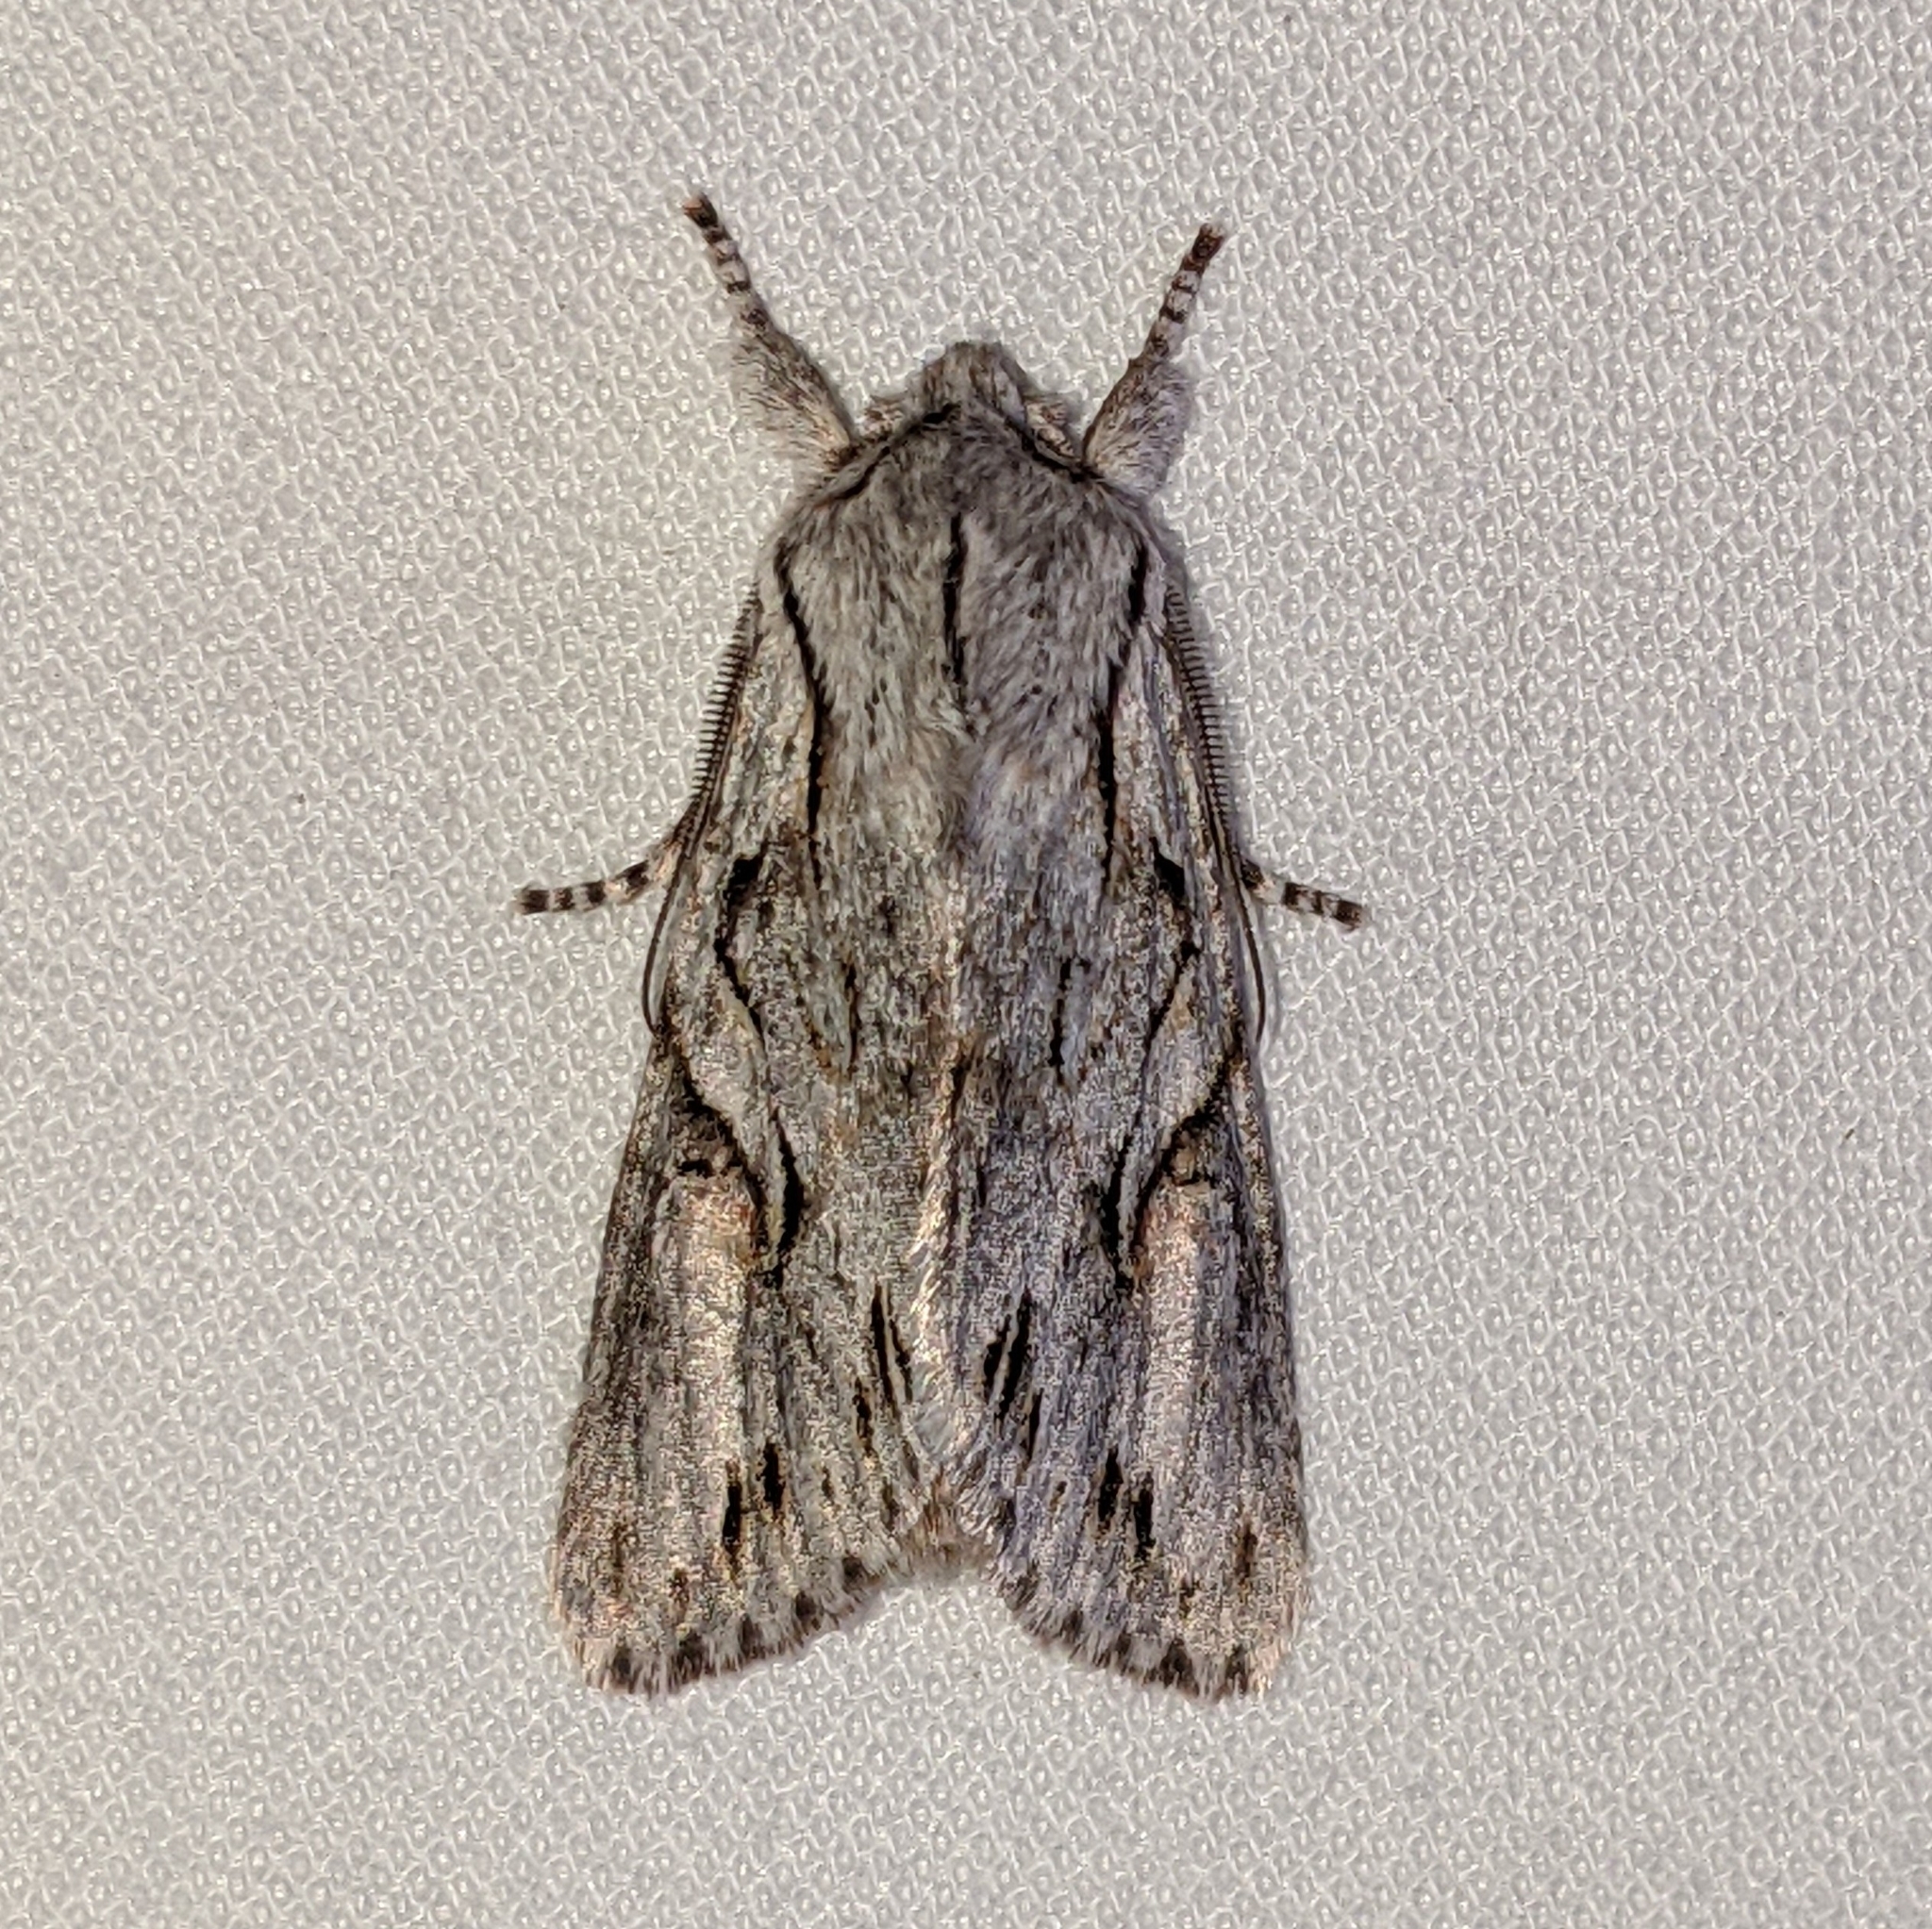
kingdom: Animalia
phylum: Arthropoda
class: Insecta
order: Lepidoptera
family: Noctuidae
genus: Egira
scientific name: Egira crucialis
